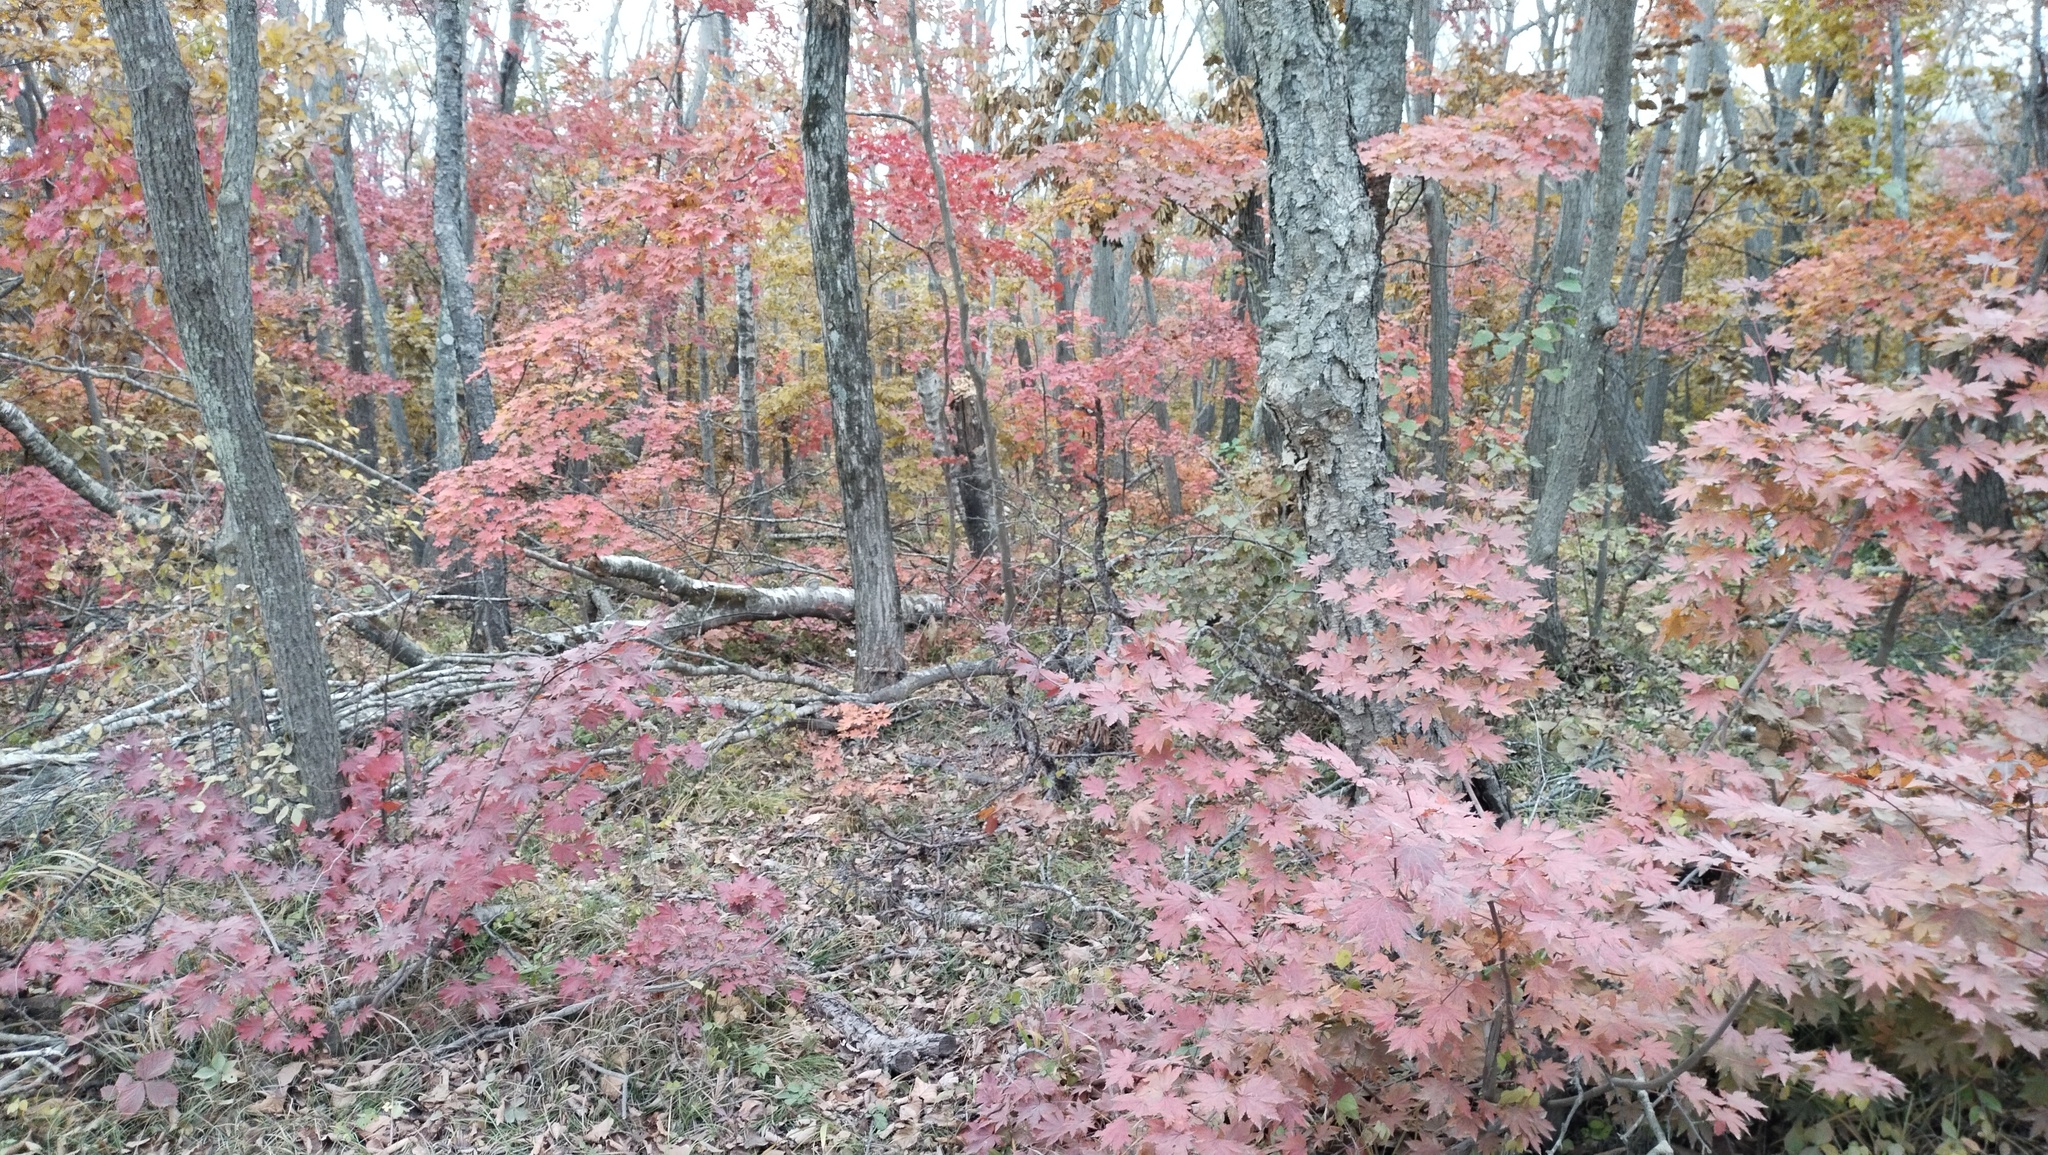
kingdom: Plantae
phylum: Tracheophyta
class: Magnoliopsida
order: Sapindales
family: Sapindaceae
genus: Acer
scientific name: Acer pseudosieboldianum
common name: Korean maple
